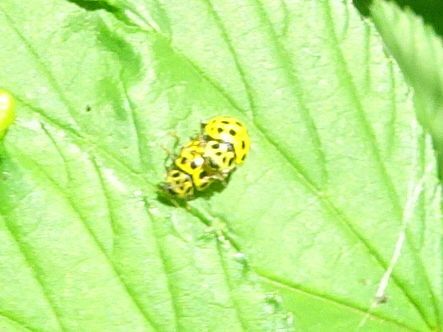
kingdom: Animalia
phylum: Arthropoda
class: Insecta
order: Coleoptera
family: Coccinellidae
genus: Psyllobora
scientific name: Psyllobora vigintiduopunctata
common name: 22-spot ladybird
